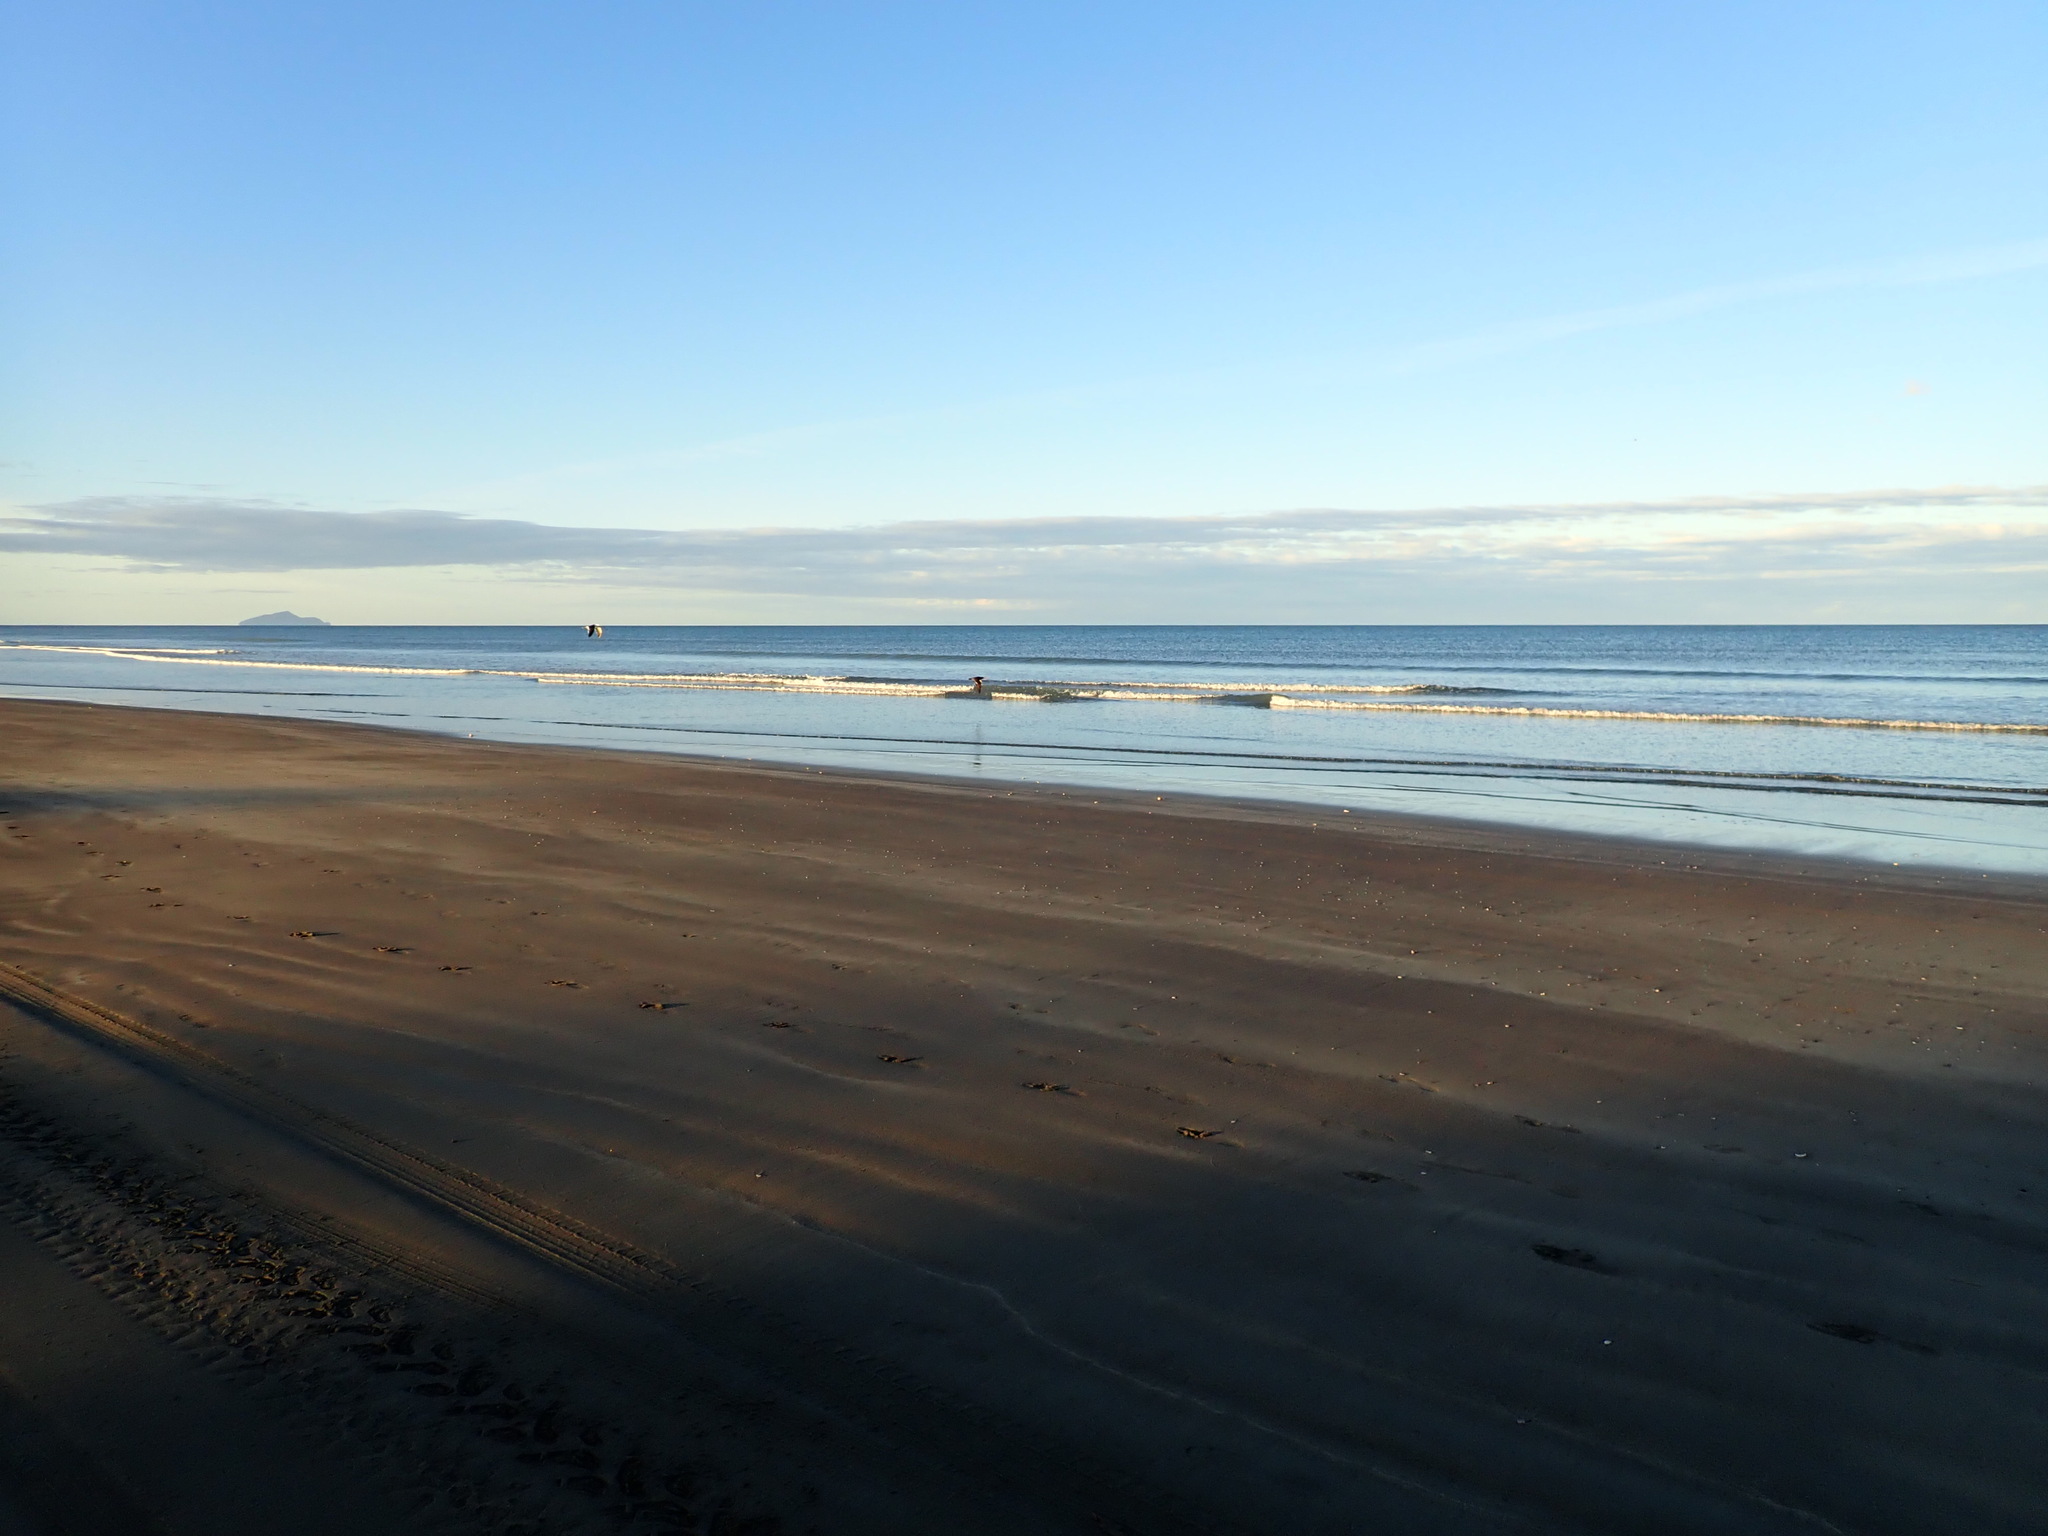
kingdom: Animalia
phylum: Chordata
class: Aves
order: Charadriiformes
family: Laridae
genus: Larus
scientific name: Larus dominicanus
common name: Kelp gull
